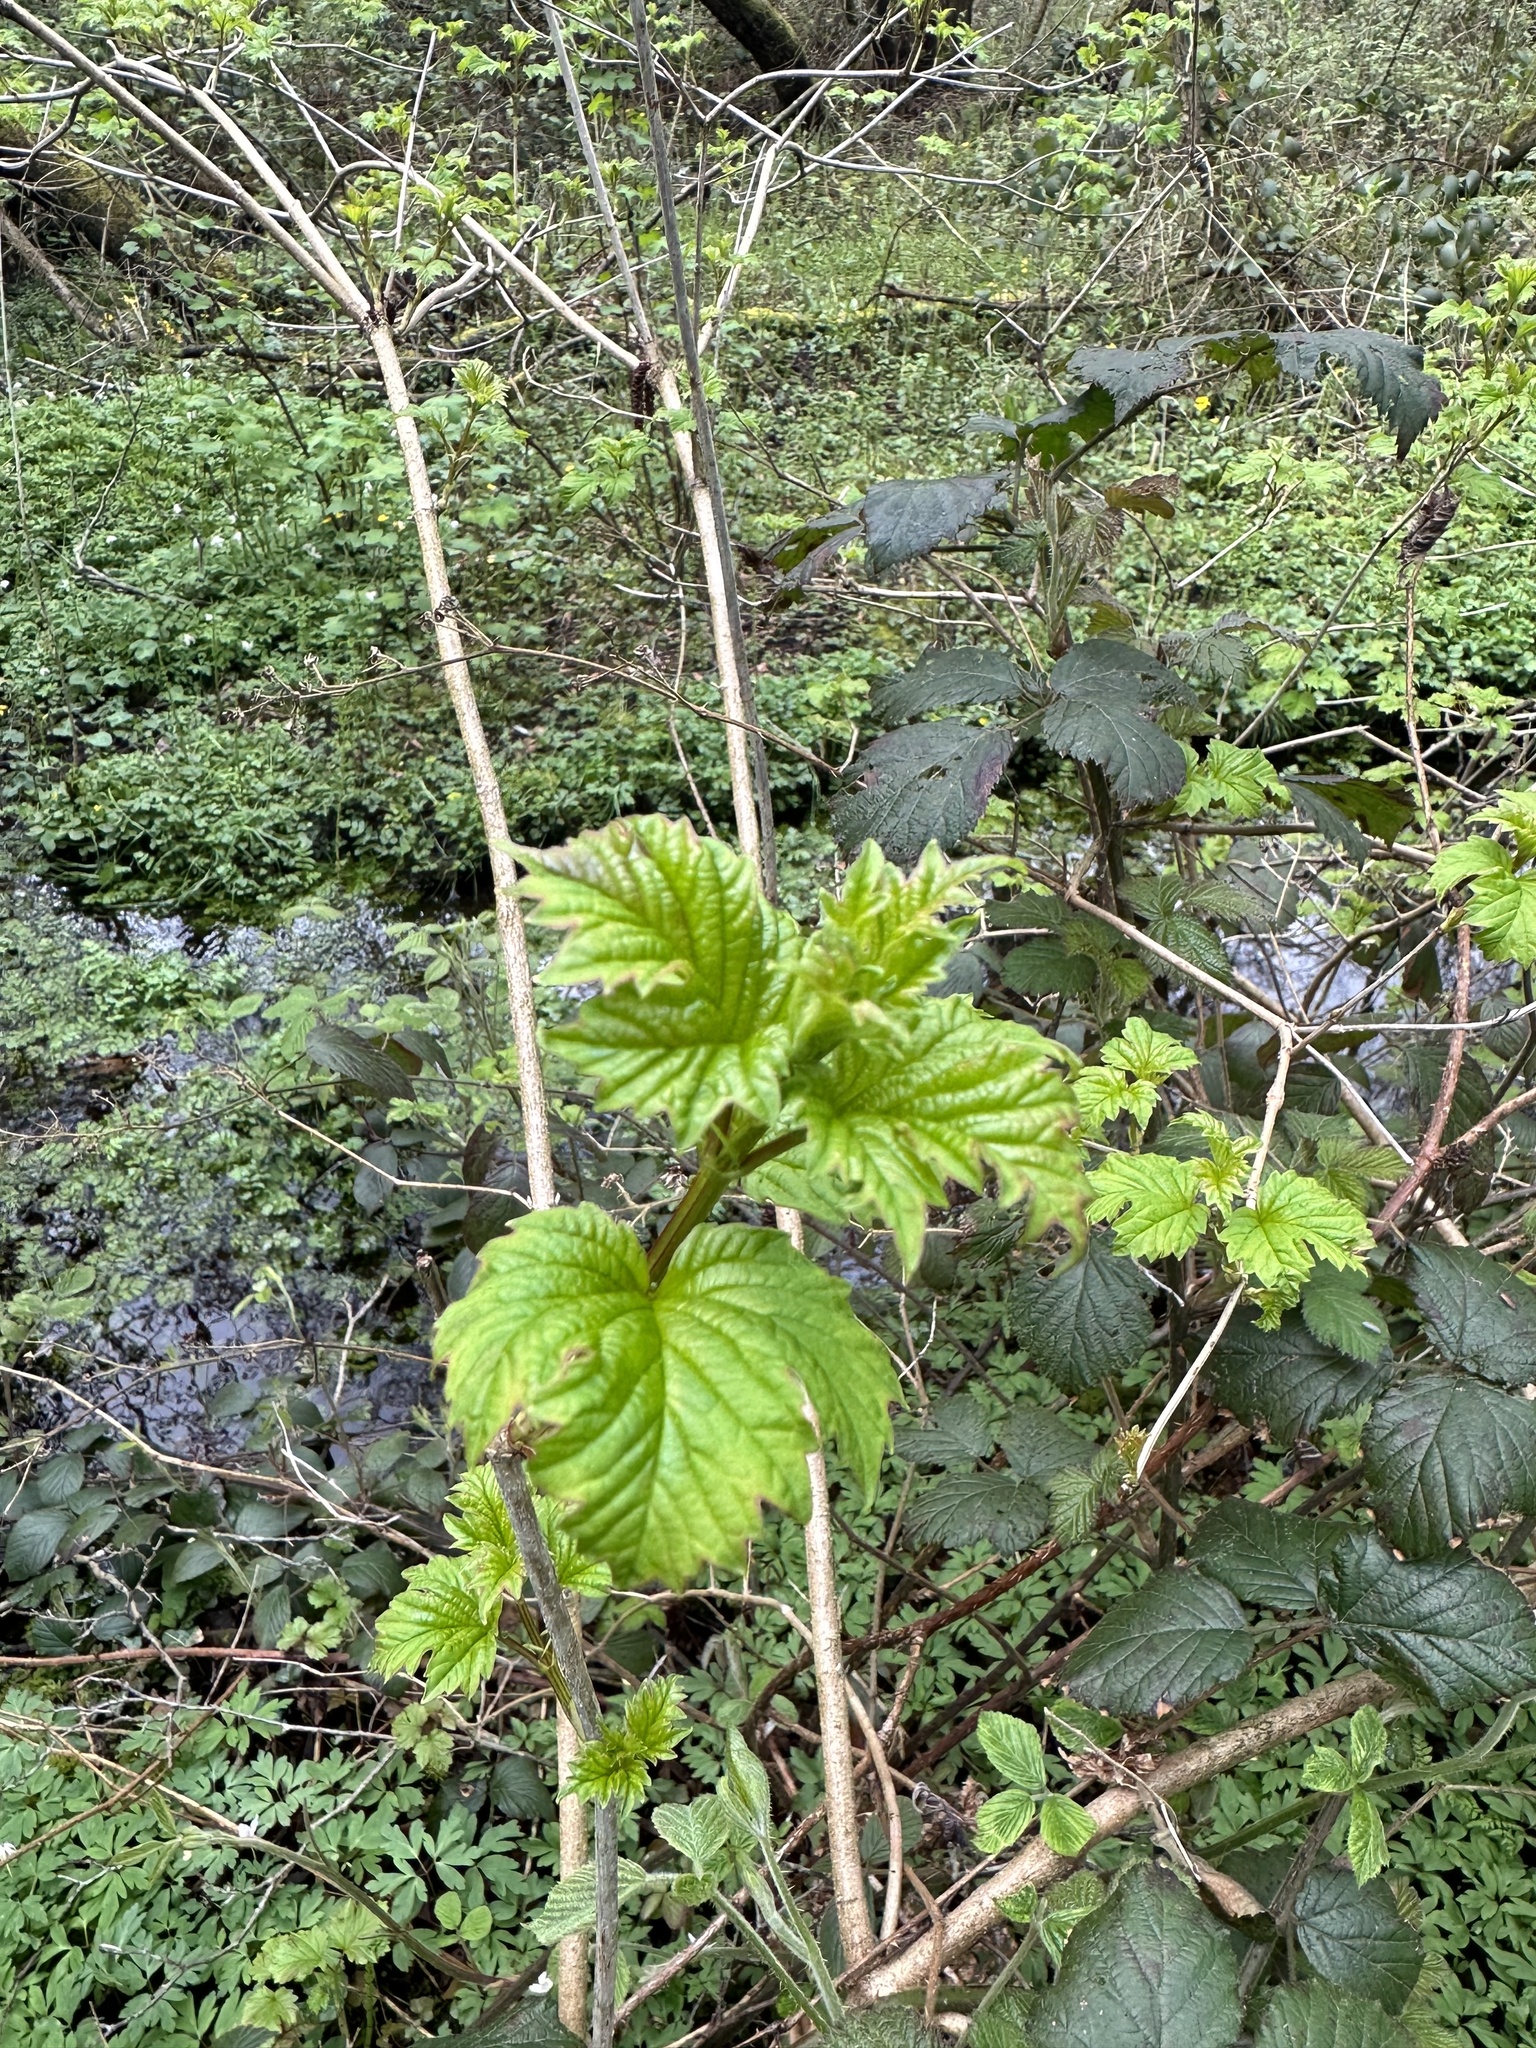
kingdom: Plantae
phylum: Tracheophyta
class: Magnoliopsida
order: Dipsacales
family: Viburnaceae
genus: Viburnum
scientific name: Viburnum opulus
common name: Guelder-rose
